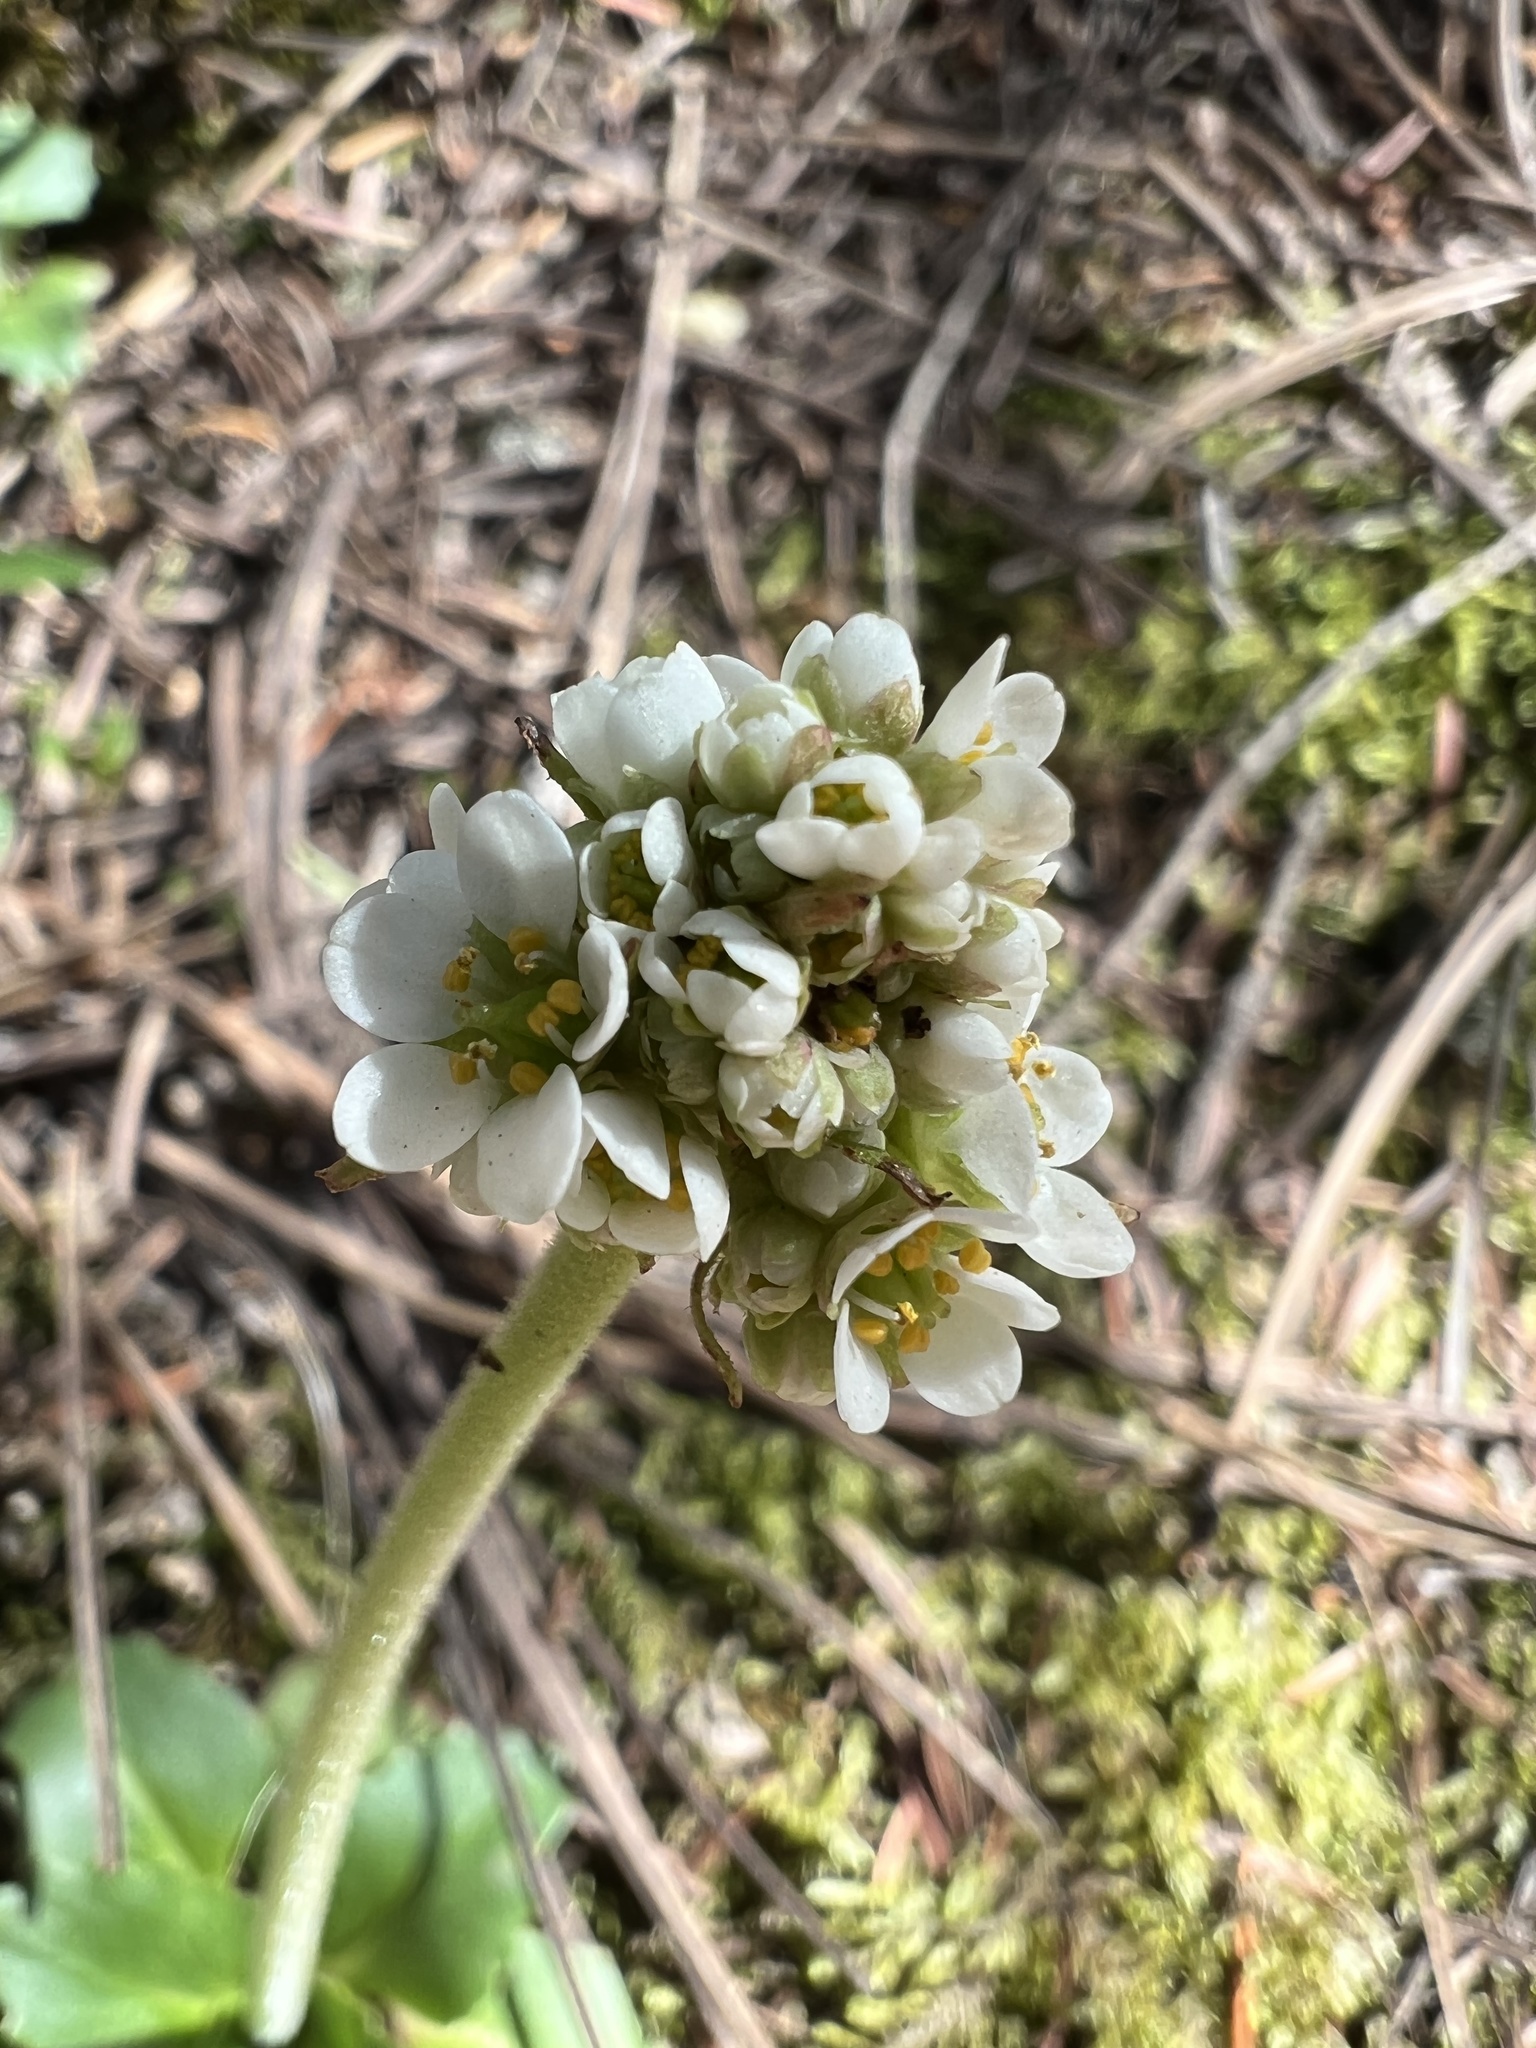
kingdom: Plantae
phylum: Tracheophyta
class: Magnoliopsida
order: Saxifragales
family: Saxifragaceae
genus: Micranthes
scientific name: Micranthes rhomboidea
